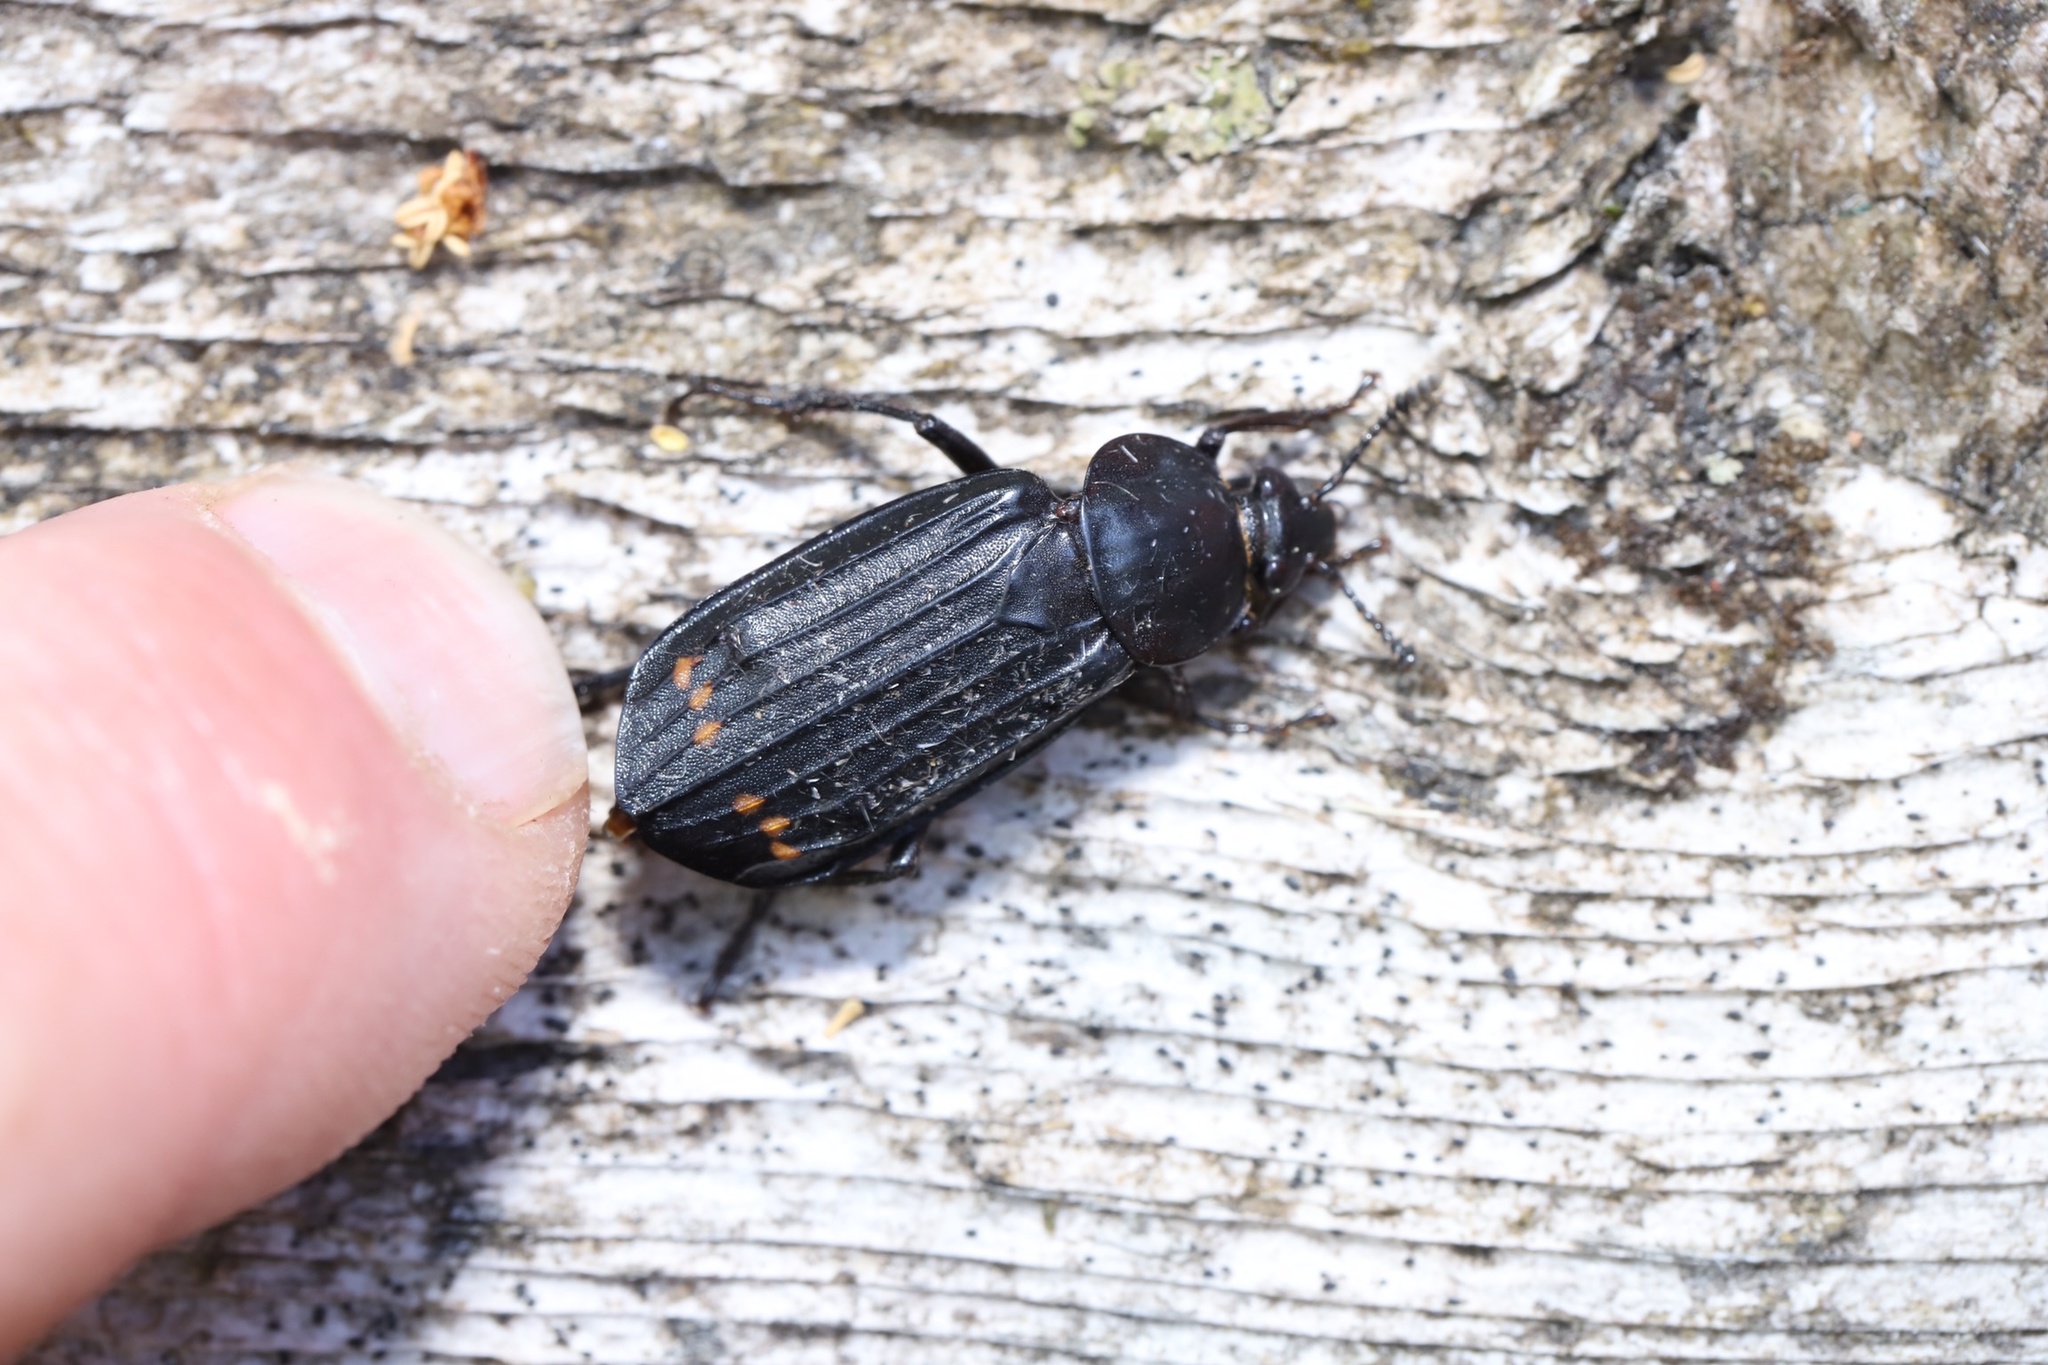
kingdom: Animalia
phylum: Arthropoda
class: Insecta
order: Coleoptera
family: Staphylinidae
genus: Necrodes
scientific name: Necrodes surinamensis
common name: Red-lined carrion beetle
